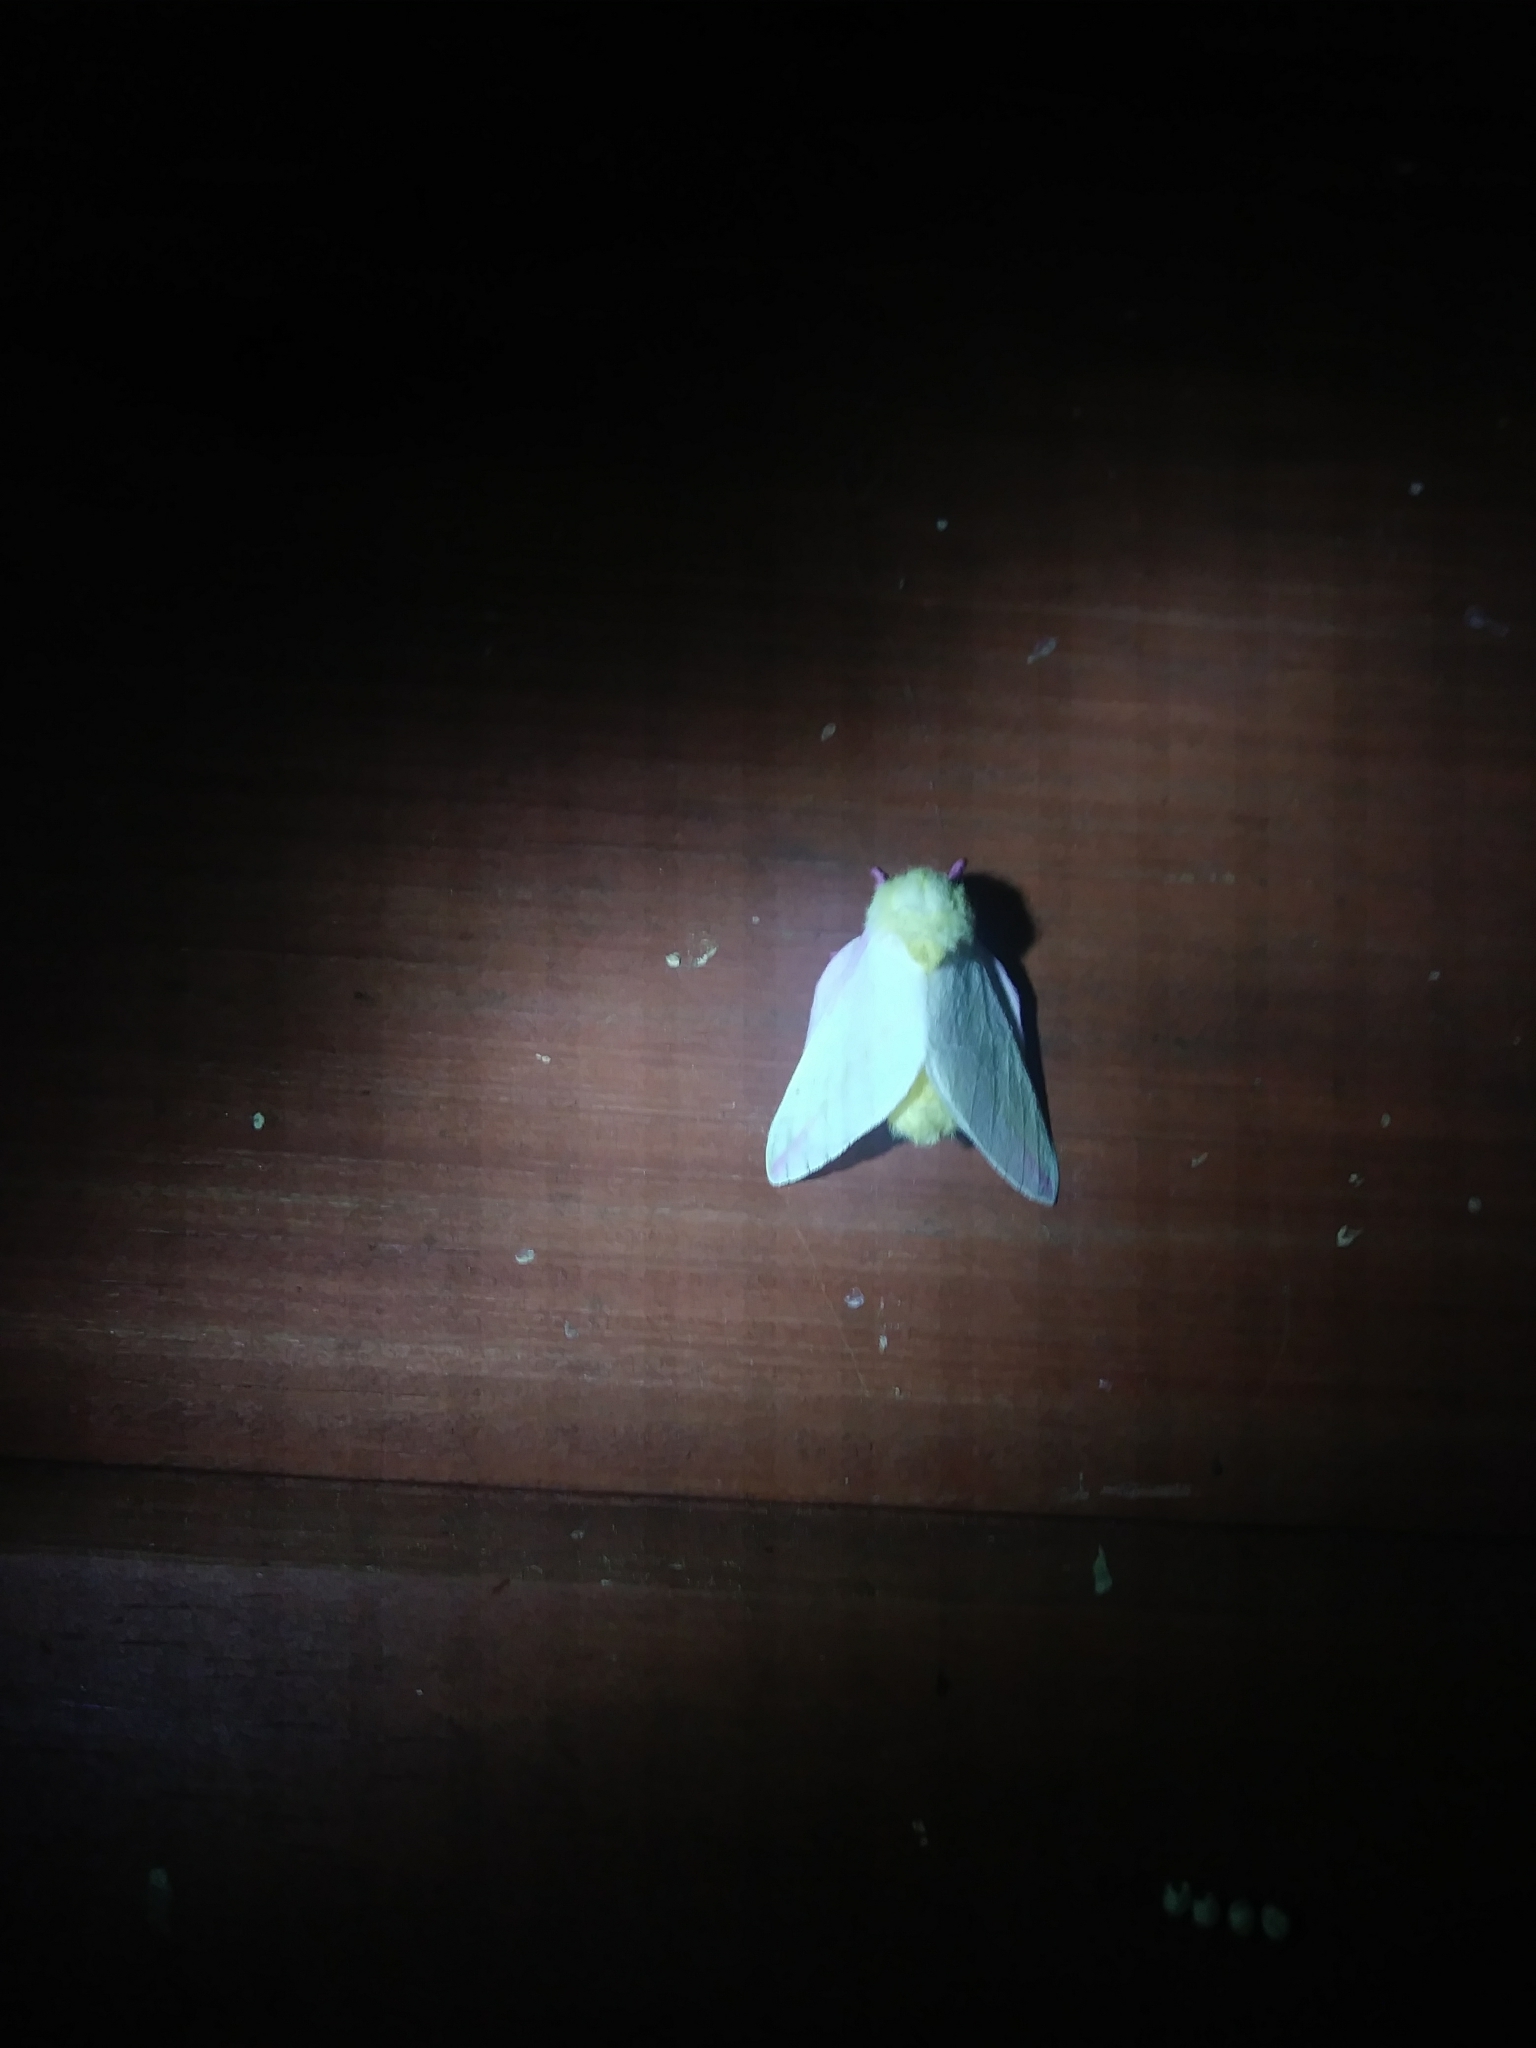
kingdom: Animalia
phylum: Arthropoda
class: Insecta
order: Lepidoptera
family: Saturniidae
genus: Dryocampa
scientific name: Dryocampa rubicunda
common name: Rosy maple moth
